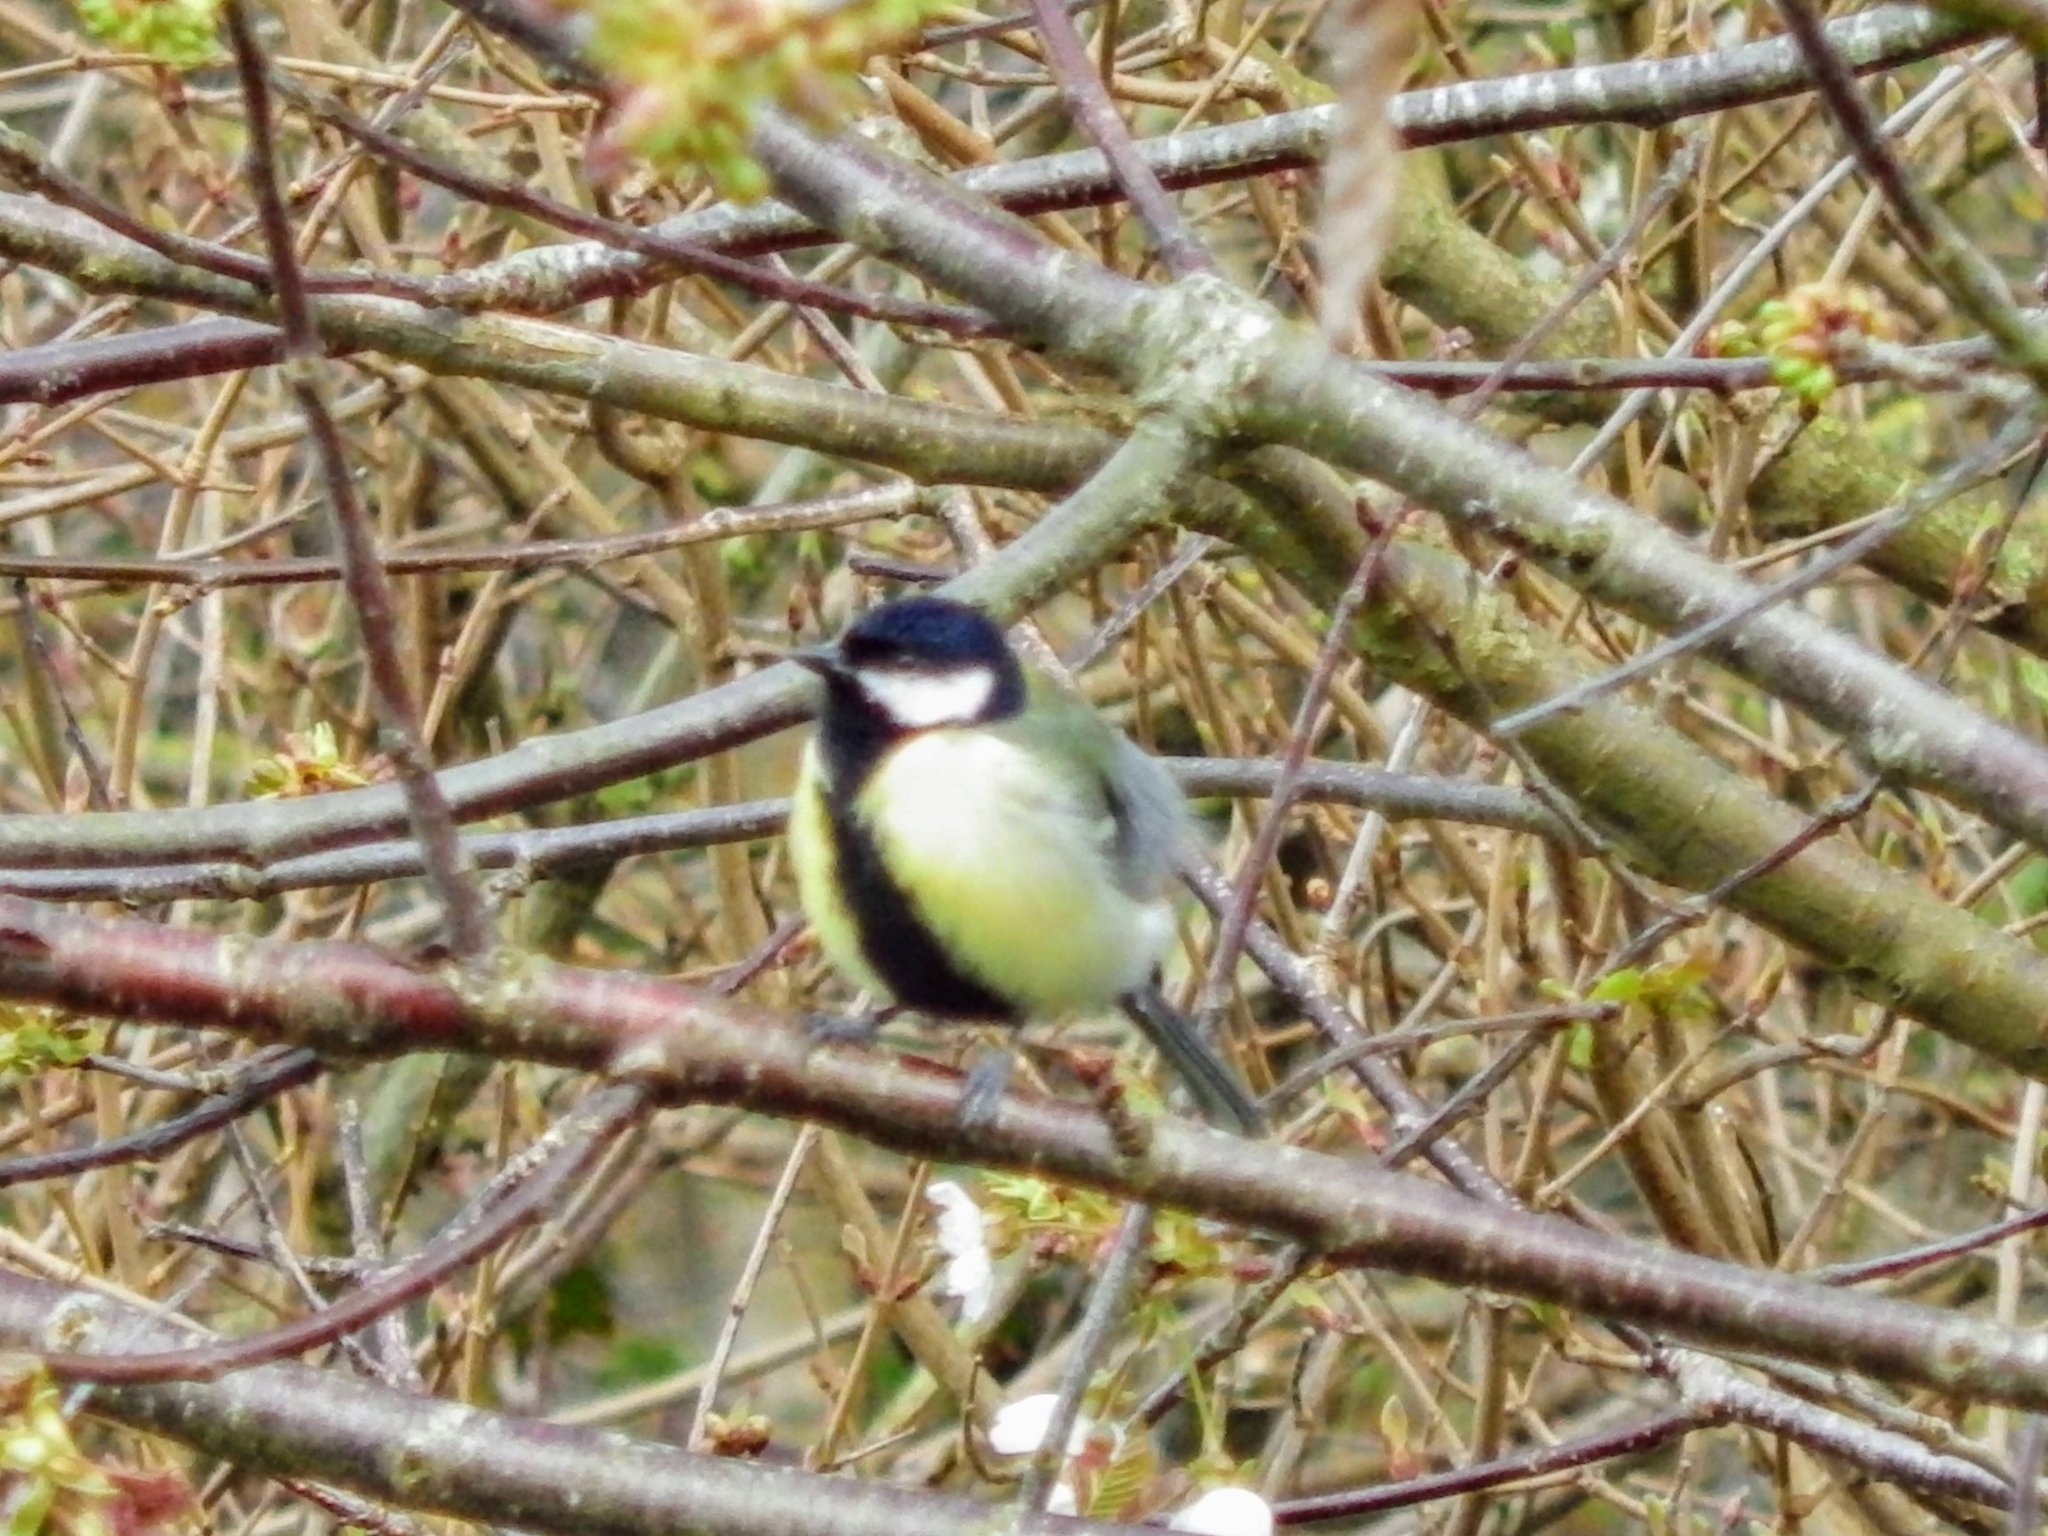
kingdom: Animalia
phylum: Chordata
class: Aves
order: Passeriformes
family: Paridae
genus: Parus
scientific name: Parus major
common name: Great tit
